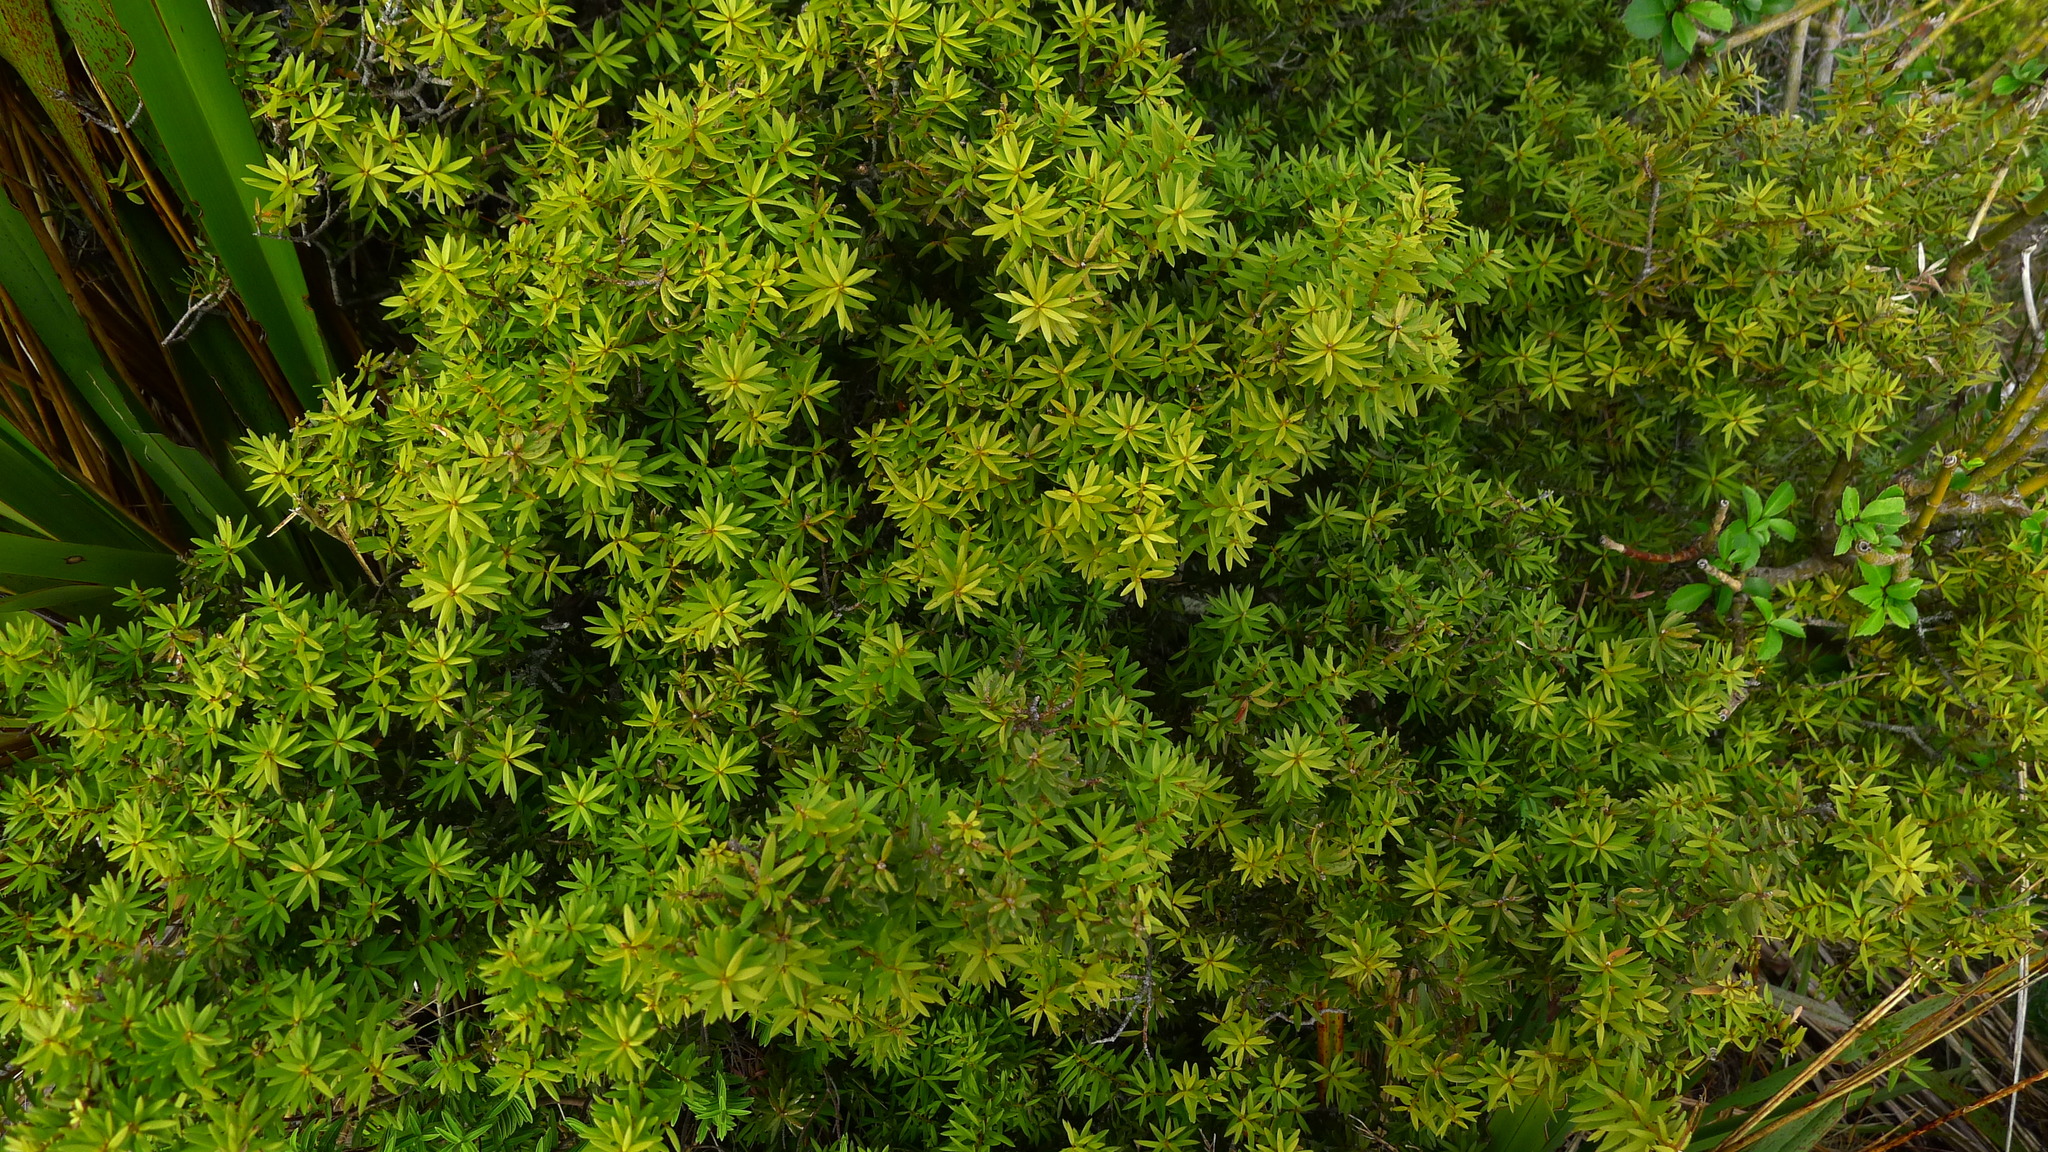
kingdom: Plantae
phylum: Tracheophyta
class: Pinopsida
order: Pinales
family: Podocarpaceae
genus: Podocarpus
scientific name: Podocarpus laetus
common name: Hall's totara
